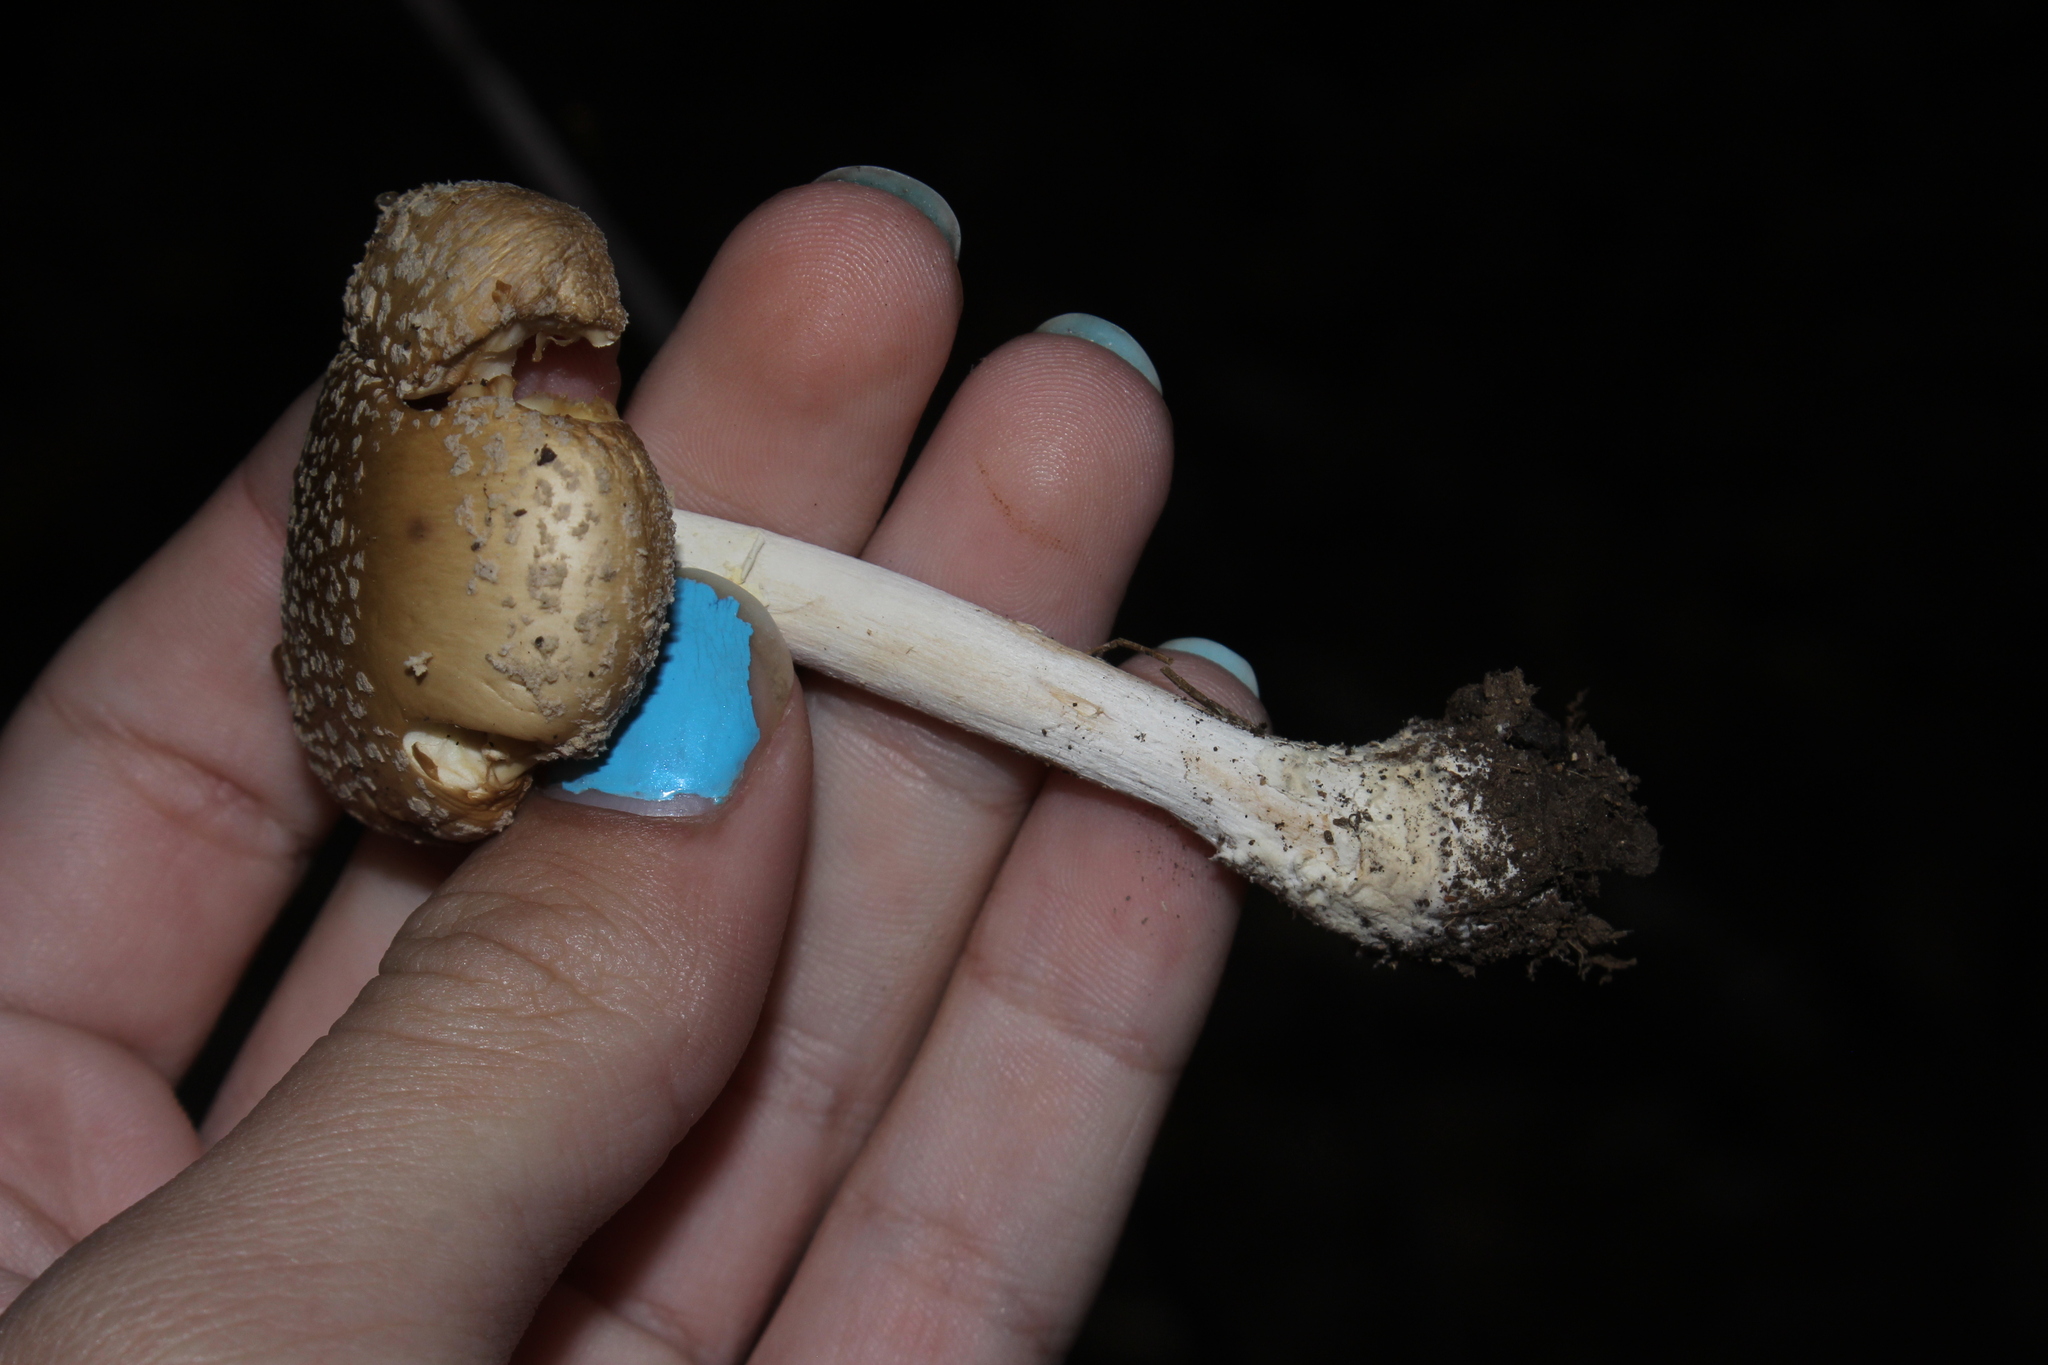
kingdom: Fungi
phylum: Basidiomycota
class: Agaricomycetes
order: Agaricales
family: Amanitaceae
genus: Amanita
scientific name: Amanita crenulata
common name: Poison champagne amanita
